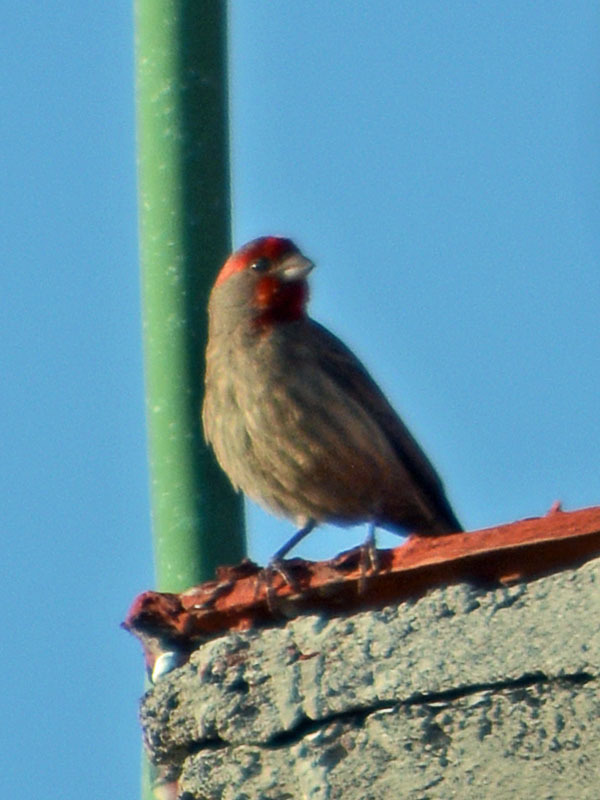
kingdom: Animalia
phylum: Chordata
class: Aves
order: Passeriformes
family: Fringillidae
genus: Haemorhous
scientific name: Haemorhous mexicanus
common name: House finch
